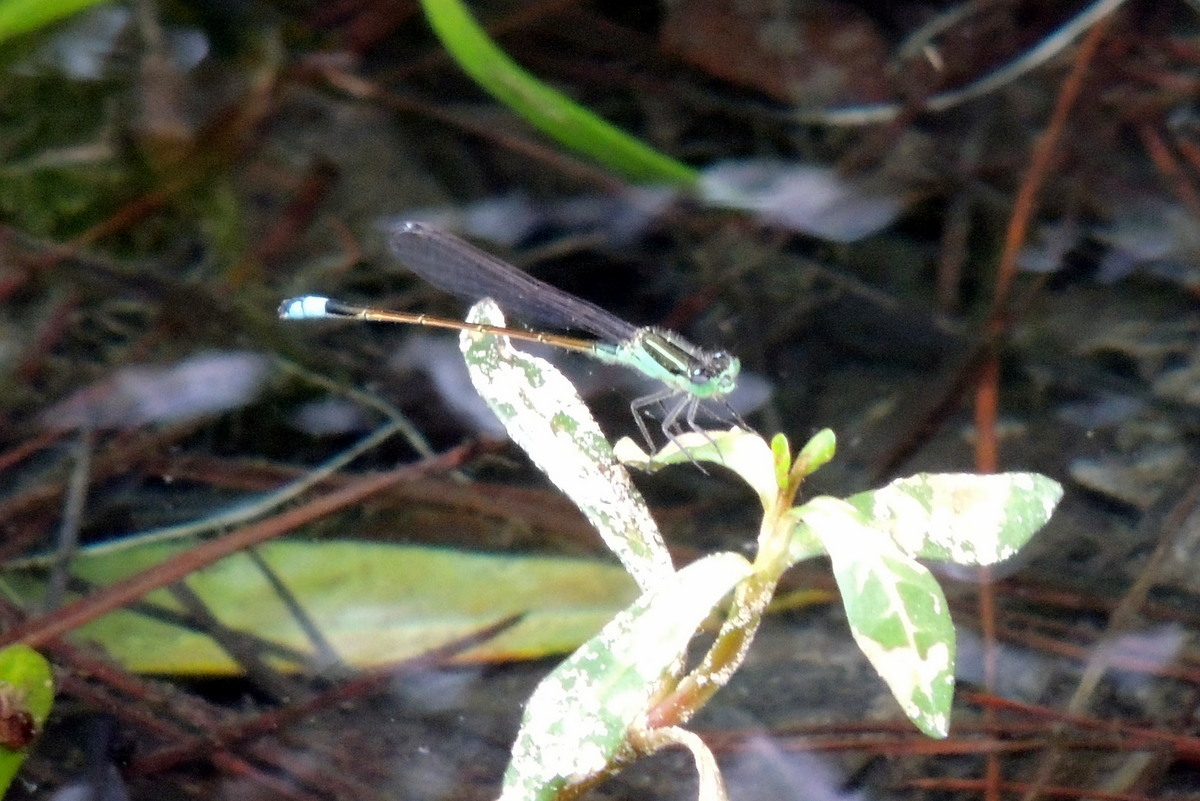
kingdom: Animalia
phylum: Arthropoda
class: Insecta
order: Odonata
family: Coenagrionidae
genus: Ischnura
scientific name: Ischnura ramburii
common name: Rambur's forktail
